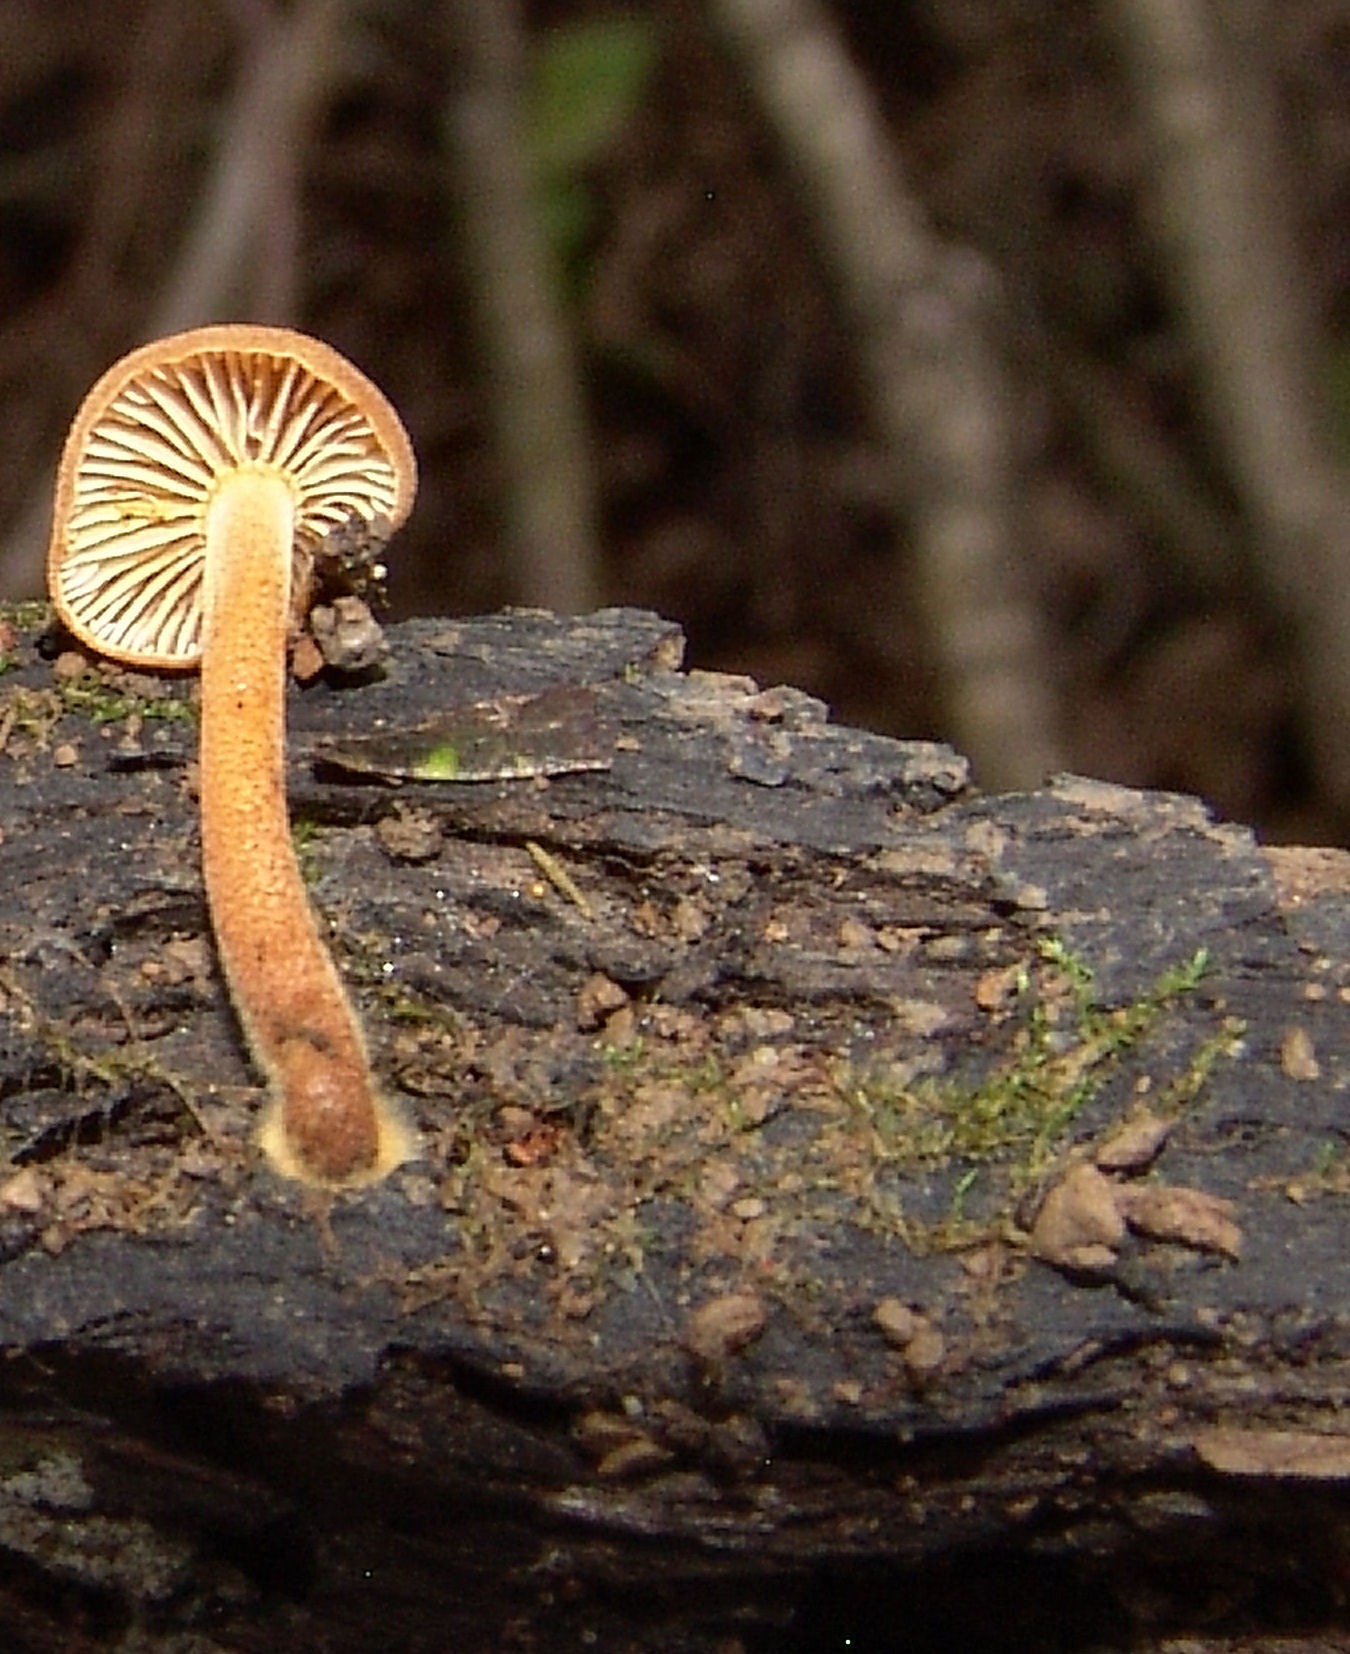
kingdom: Fungi
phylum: Basidiomycota
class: Agaricomycetes
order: Agaricales
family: Mycenaceae
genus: Xeromphalina
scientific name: Xeromphalina tenuipes
